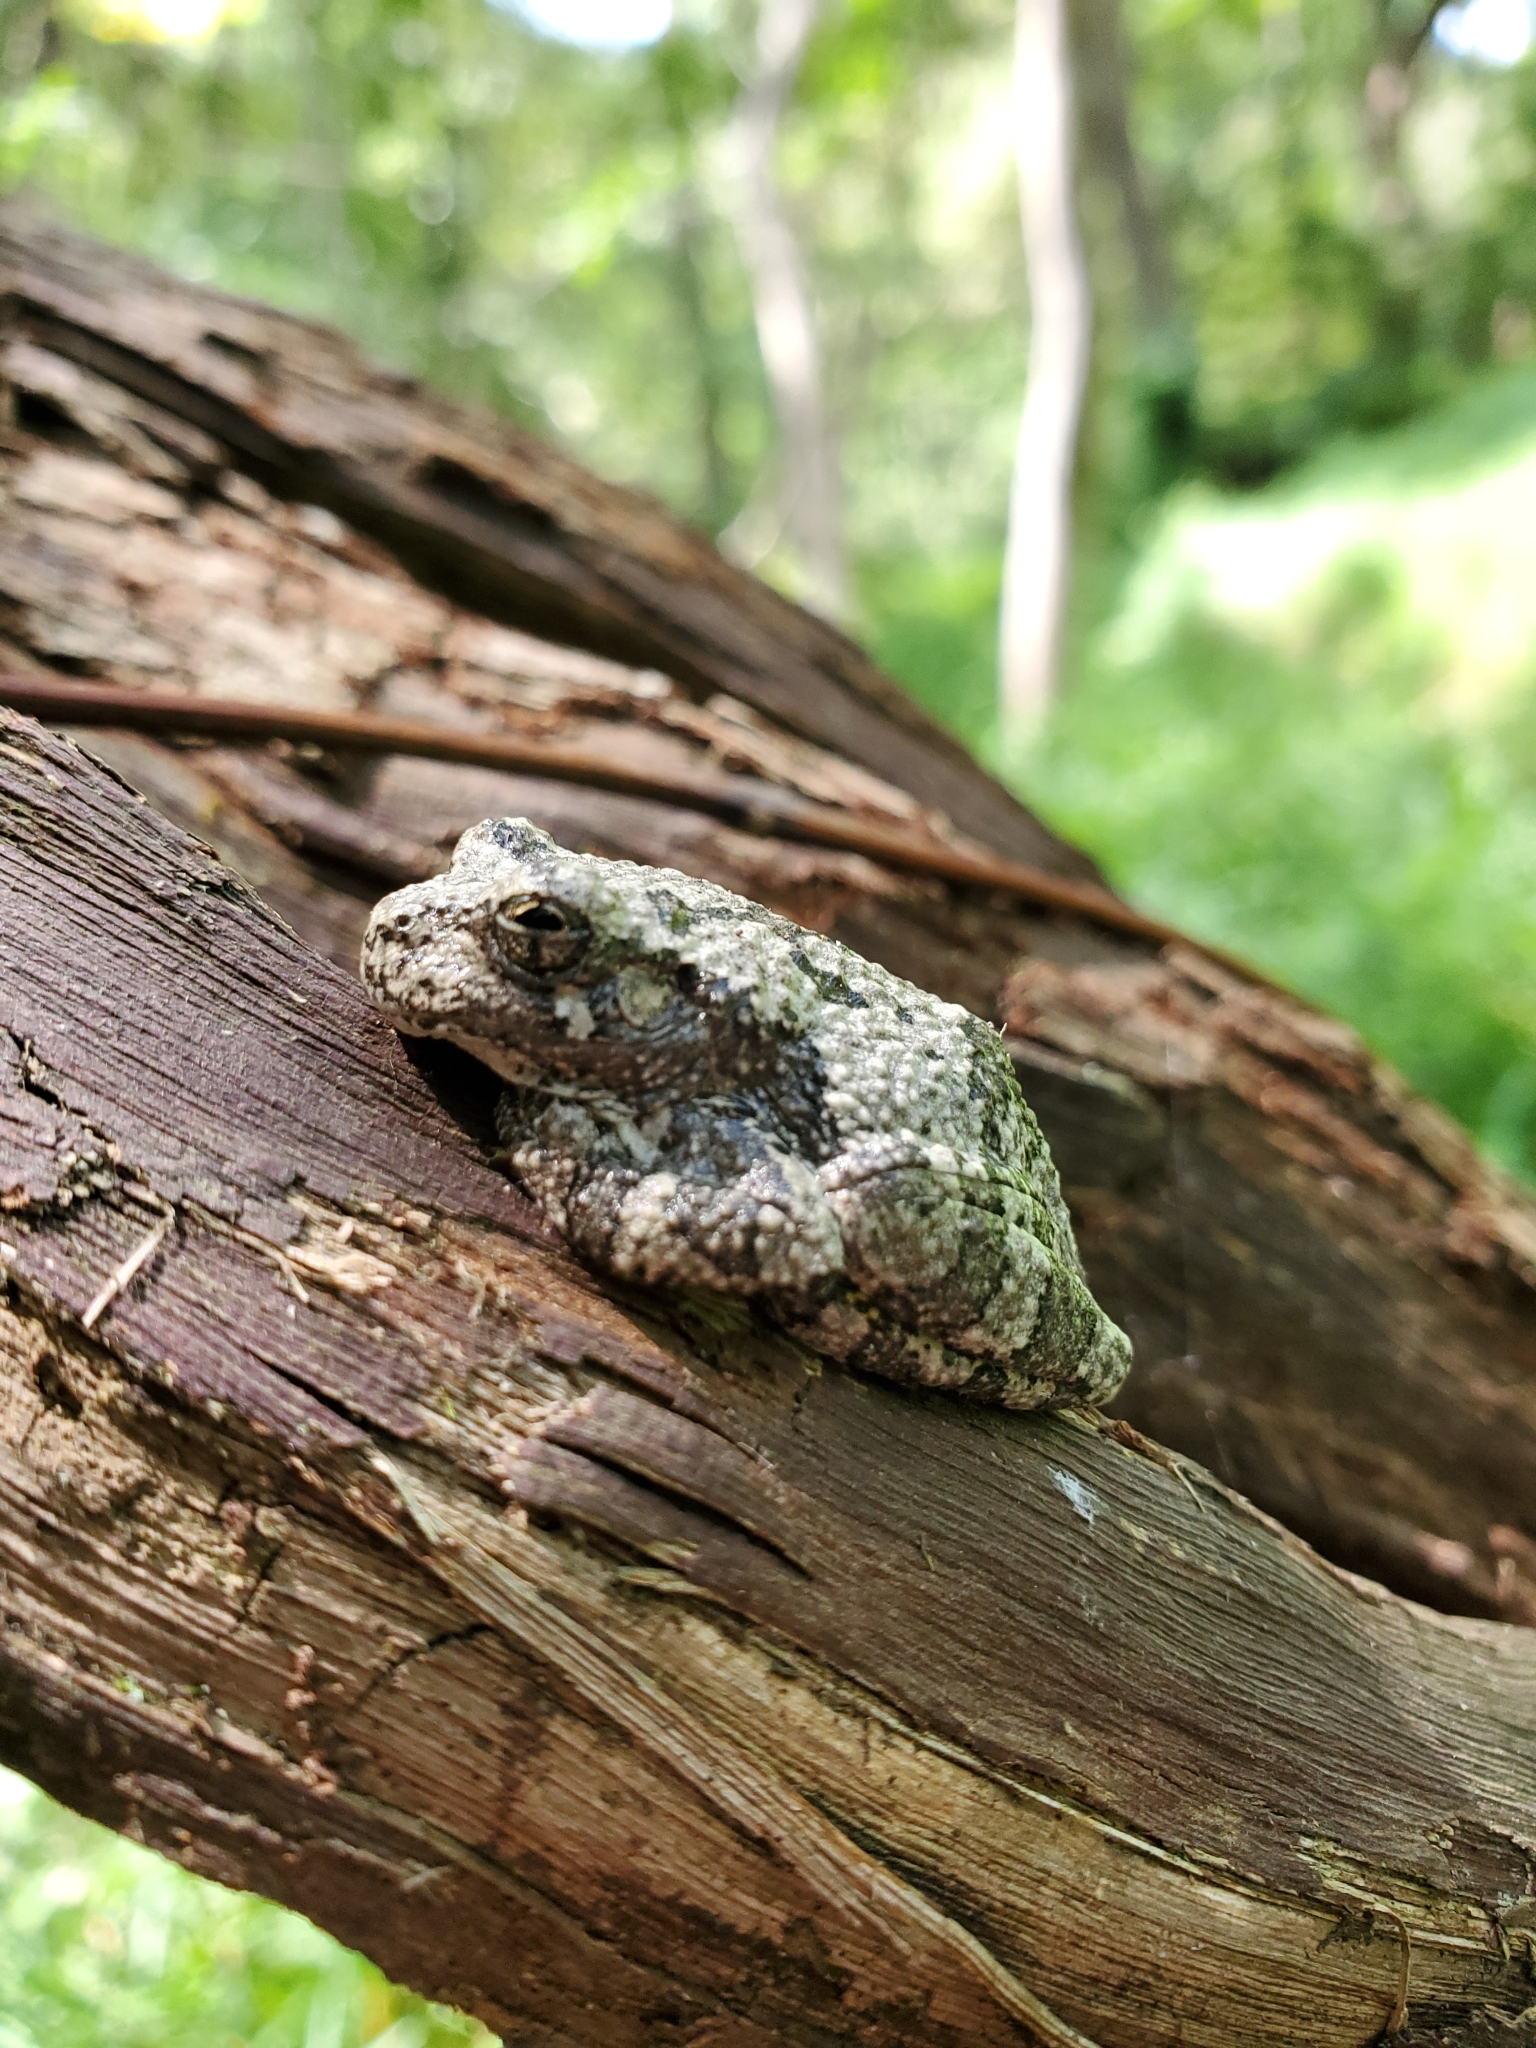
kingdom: Animalia
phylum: Chordata
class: Amphibia
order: Anura
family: Hylidae
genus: Hyla
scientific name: Hyla
